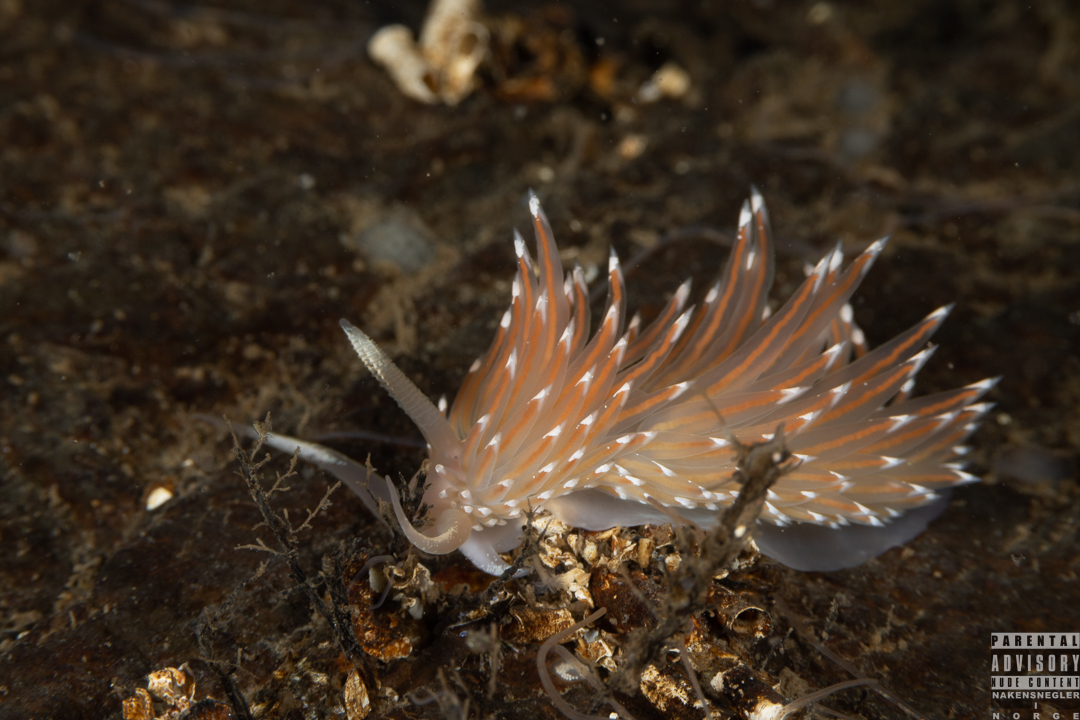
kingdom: Animalia
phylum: Mollusca
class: Gastropoda
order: Nudibranchia
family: Facelinidae
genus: Facelina
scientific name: Facelina bostoniensis
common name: Boston facelina
